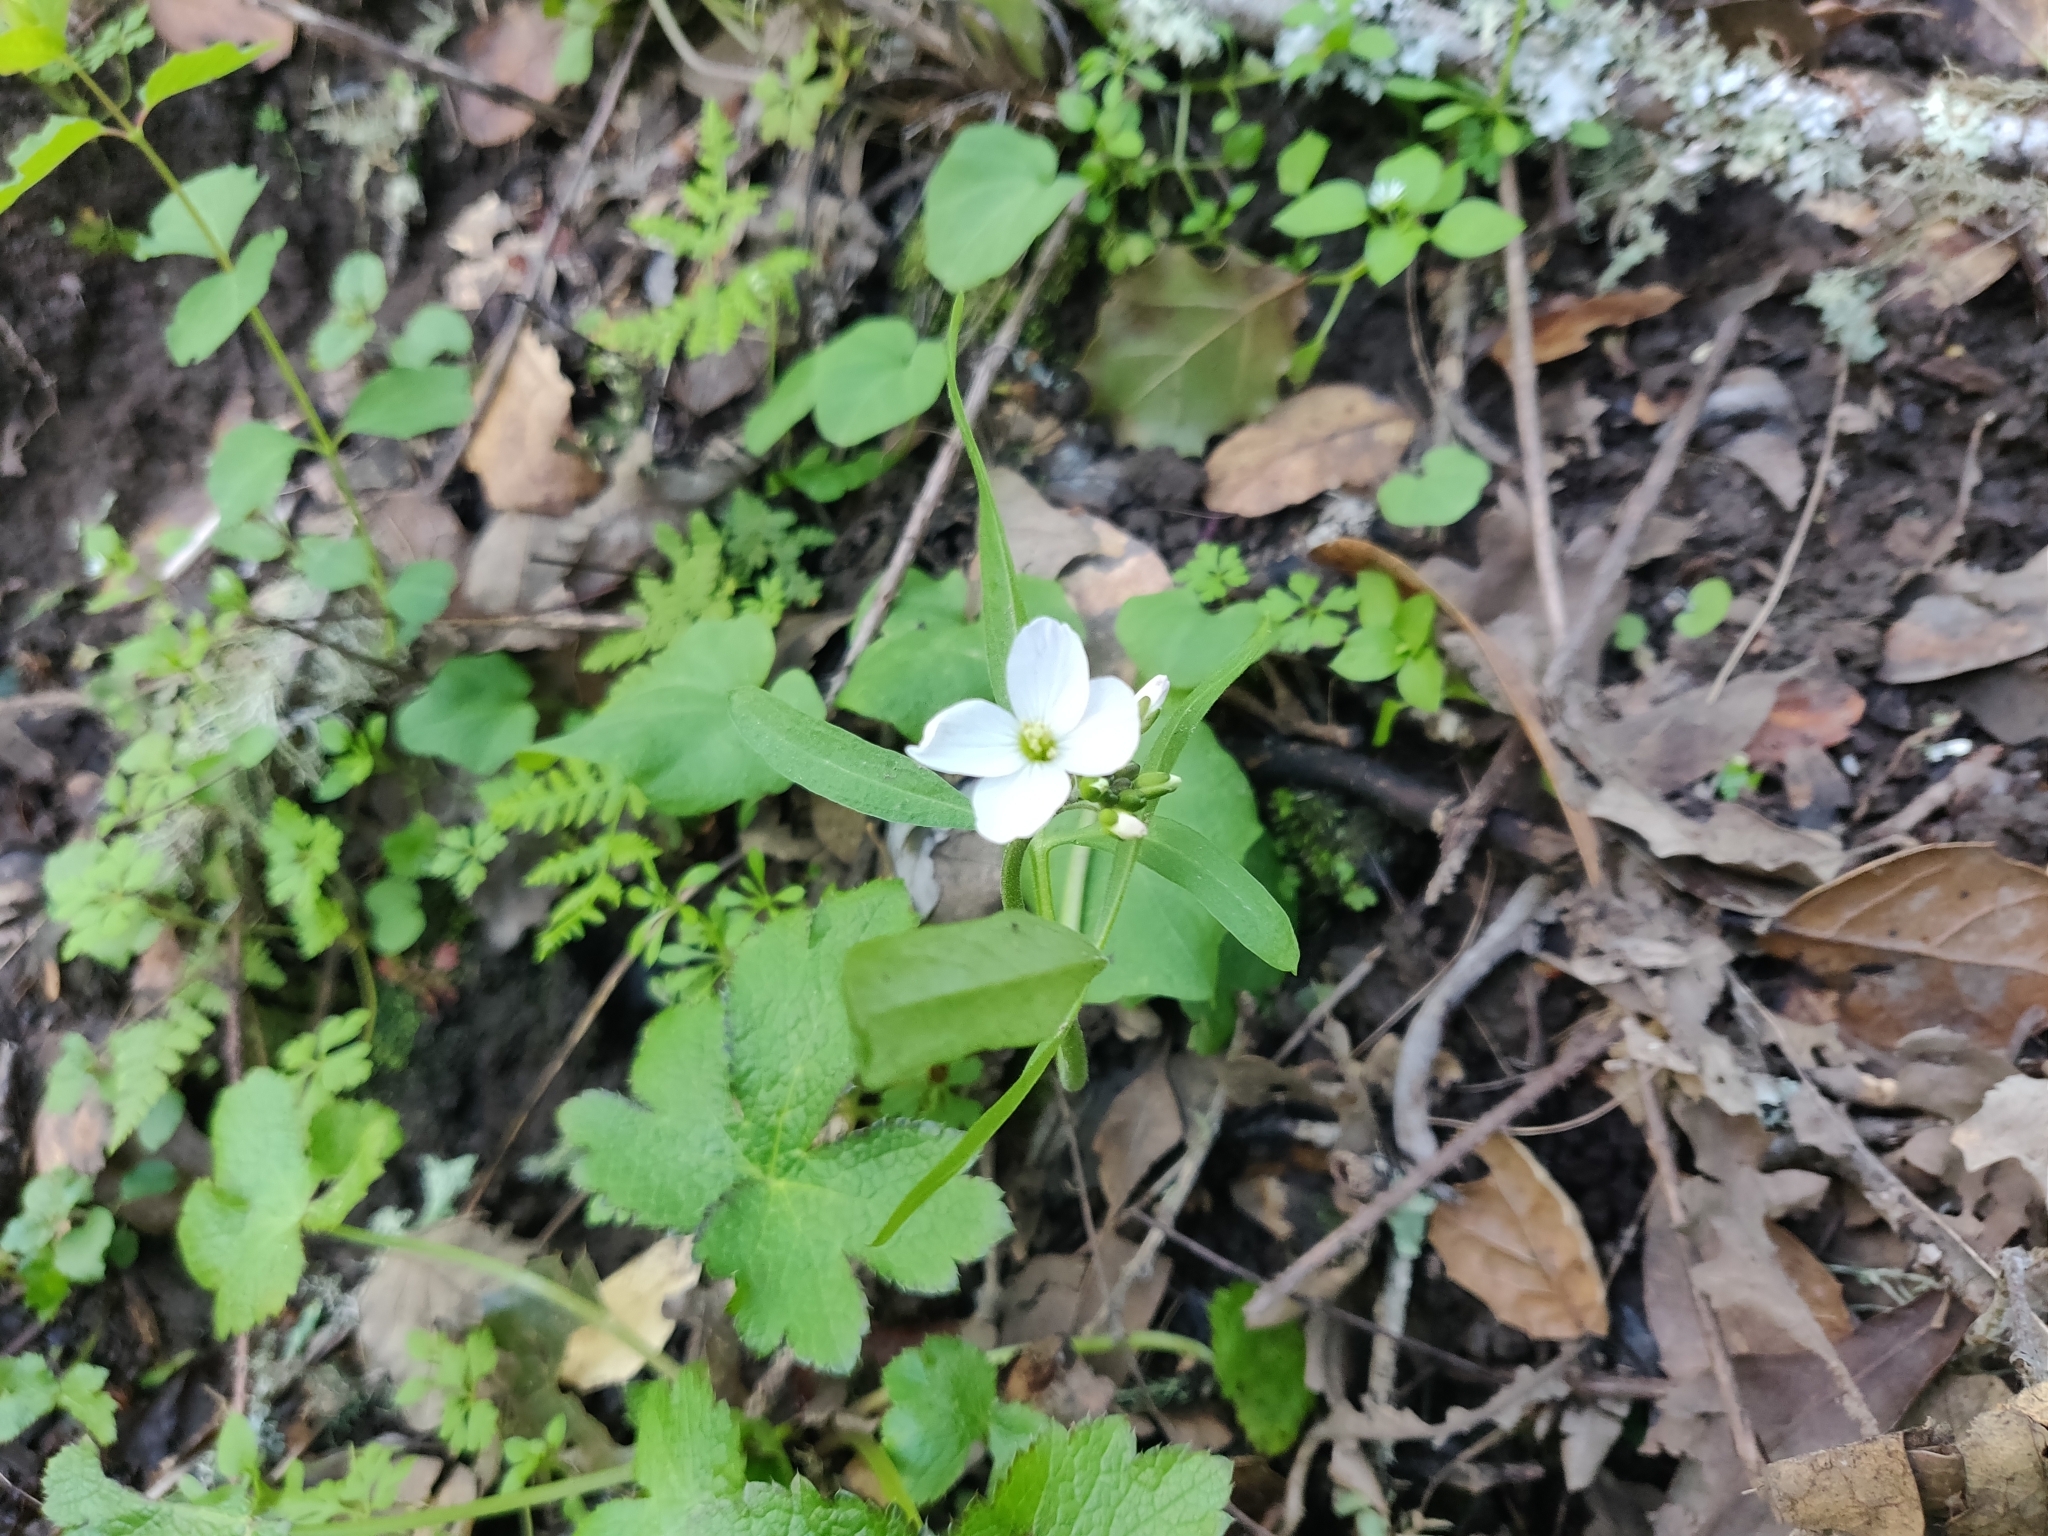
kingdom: Plantae
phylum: Tracheophyta
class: Magnoliopsida
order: Brassicales
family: Brassicaceae
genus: Cardamine
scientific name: Cardamine californica
